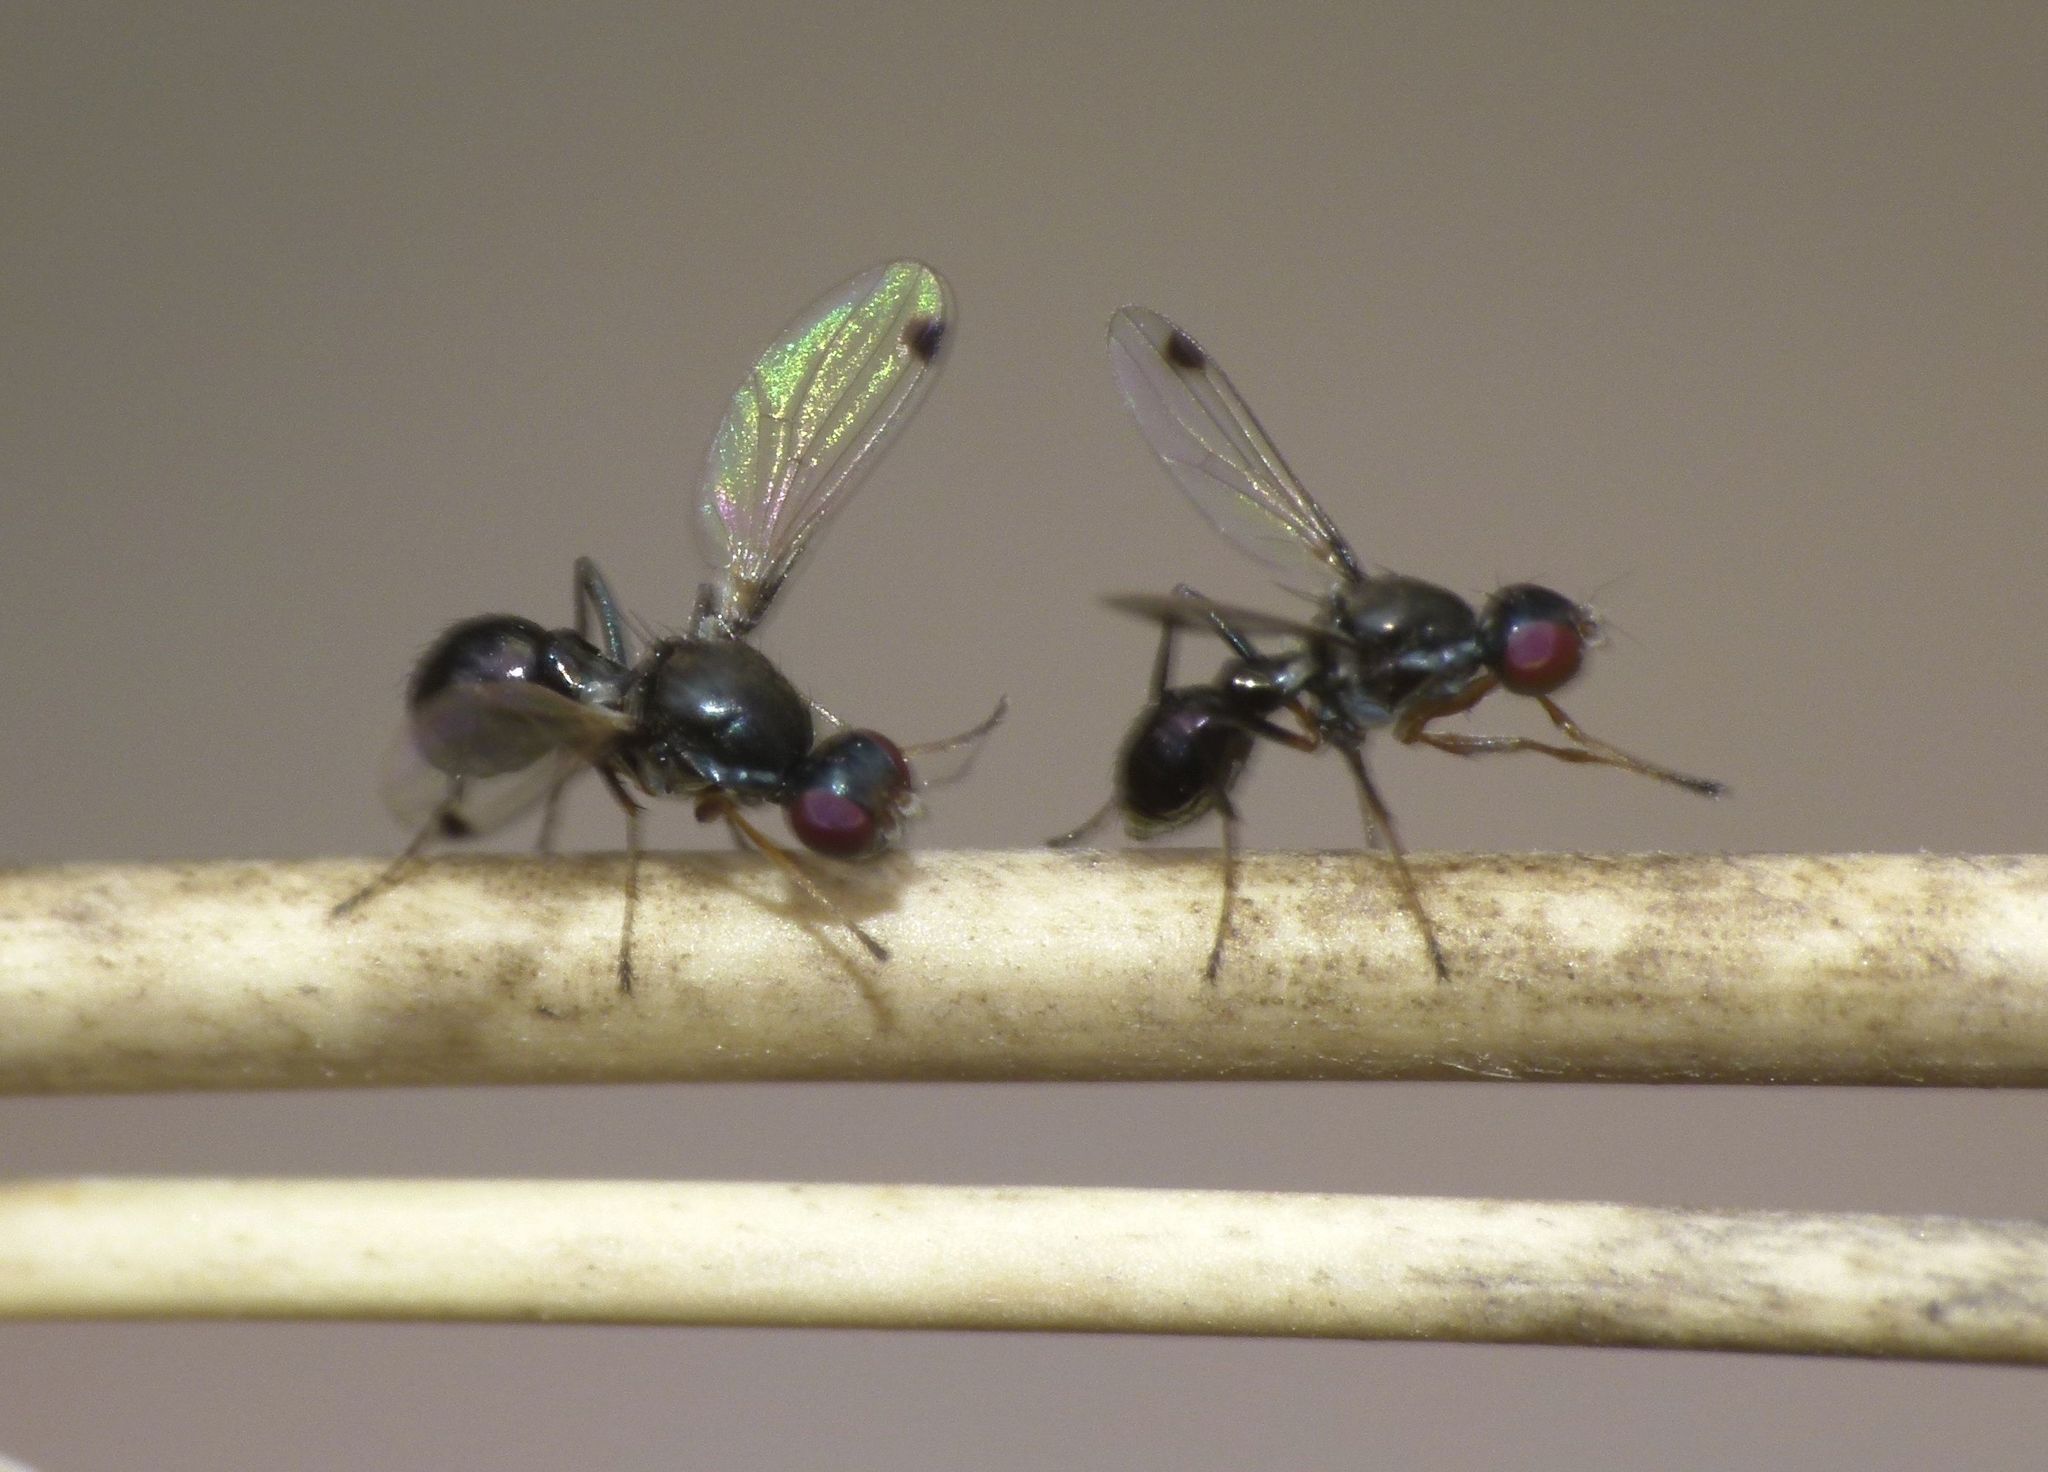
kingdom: Animalia
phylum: Arthropoda
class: Insecta
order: Diptera
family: Sepsidae
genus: Parapalaeosepsis
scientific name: Parapalaeosepsis plebeia
